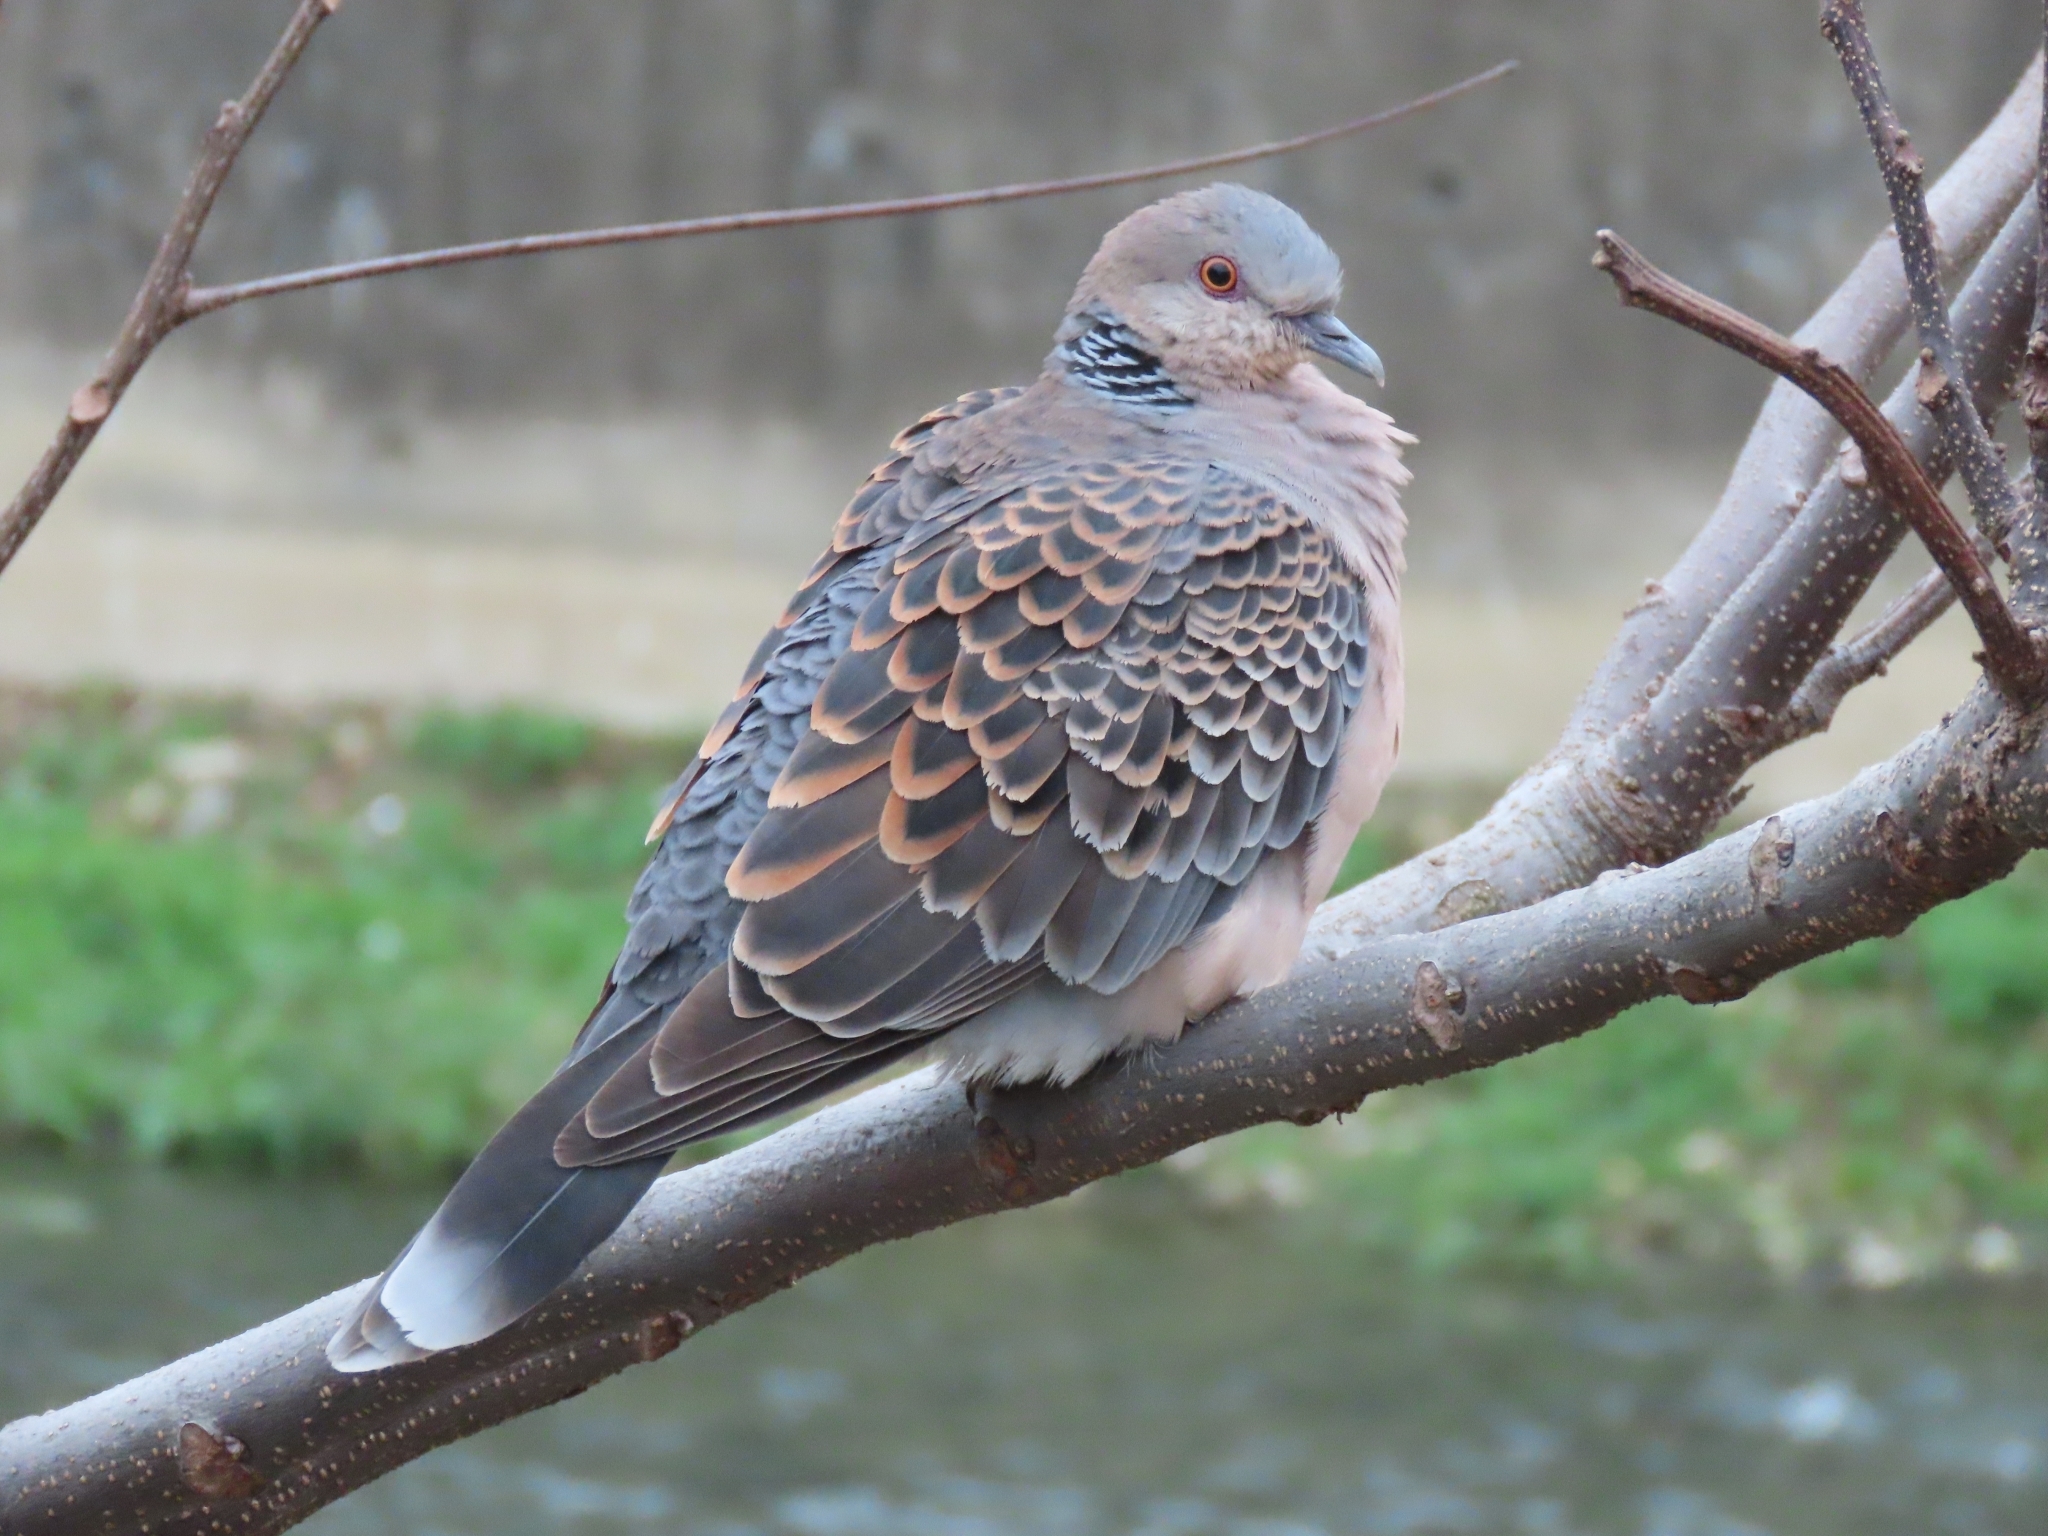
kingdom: Animalia
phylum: Chordata
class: Aves
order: Columbiformes
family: Columbidae
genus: Streptopelia
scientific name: Streptopelia orientalis
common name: Oriental turtle dove
